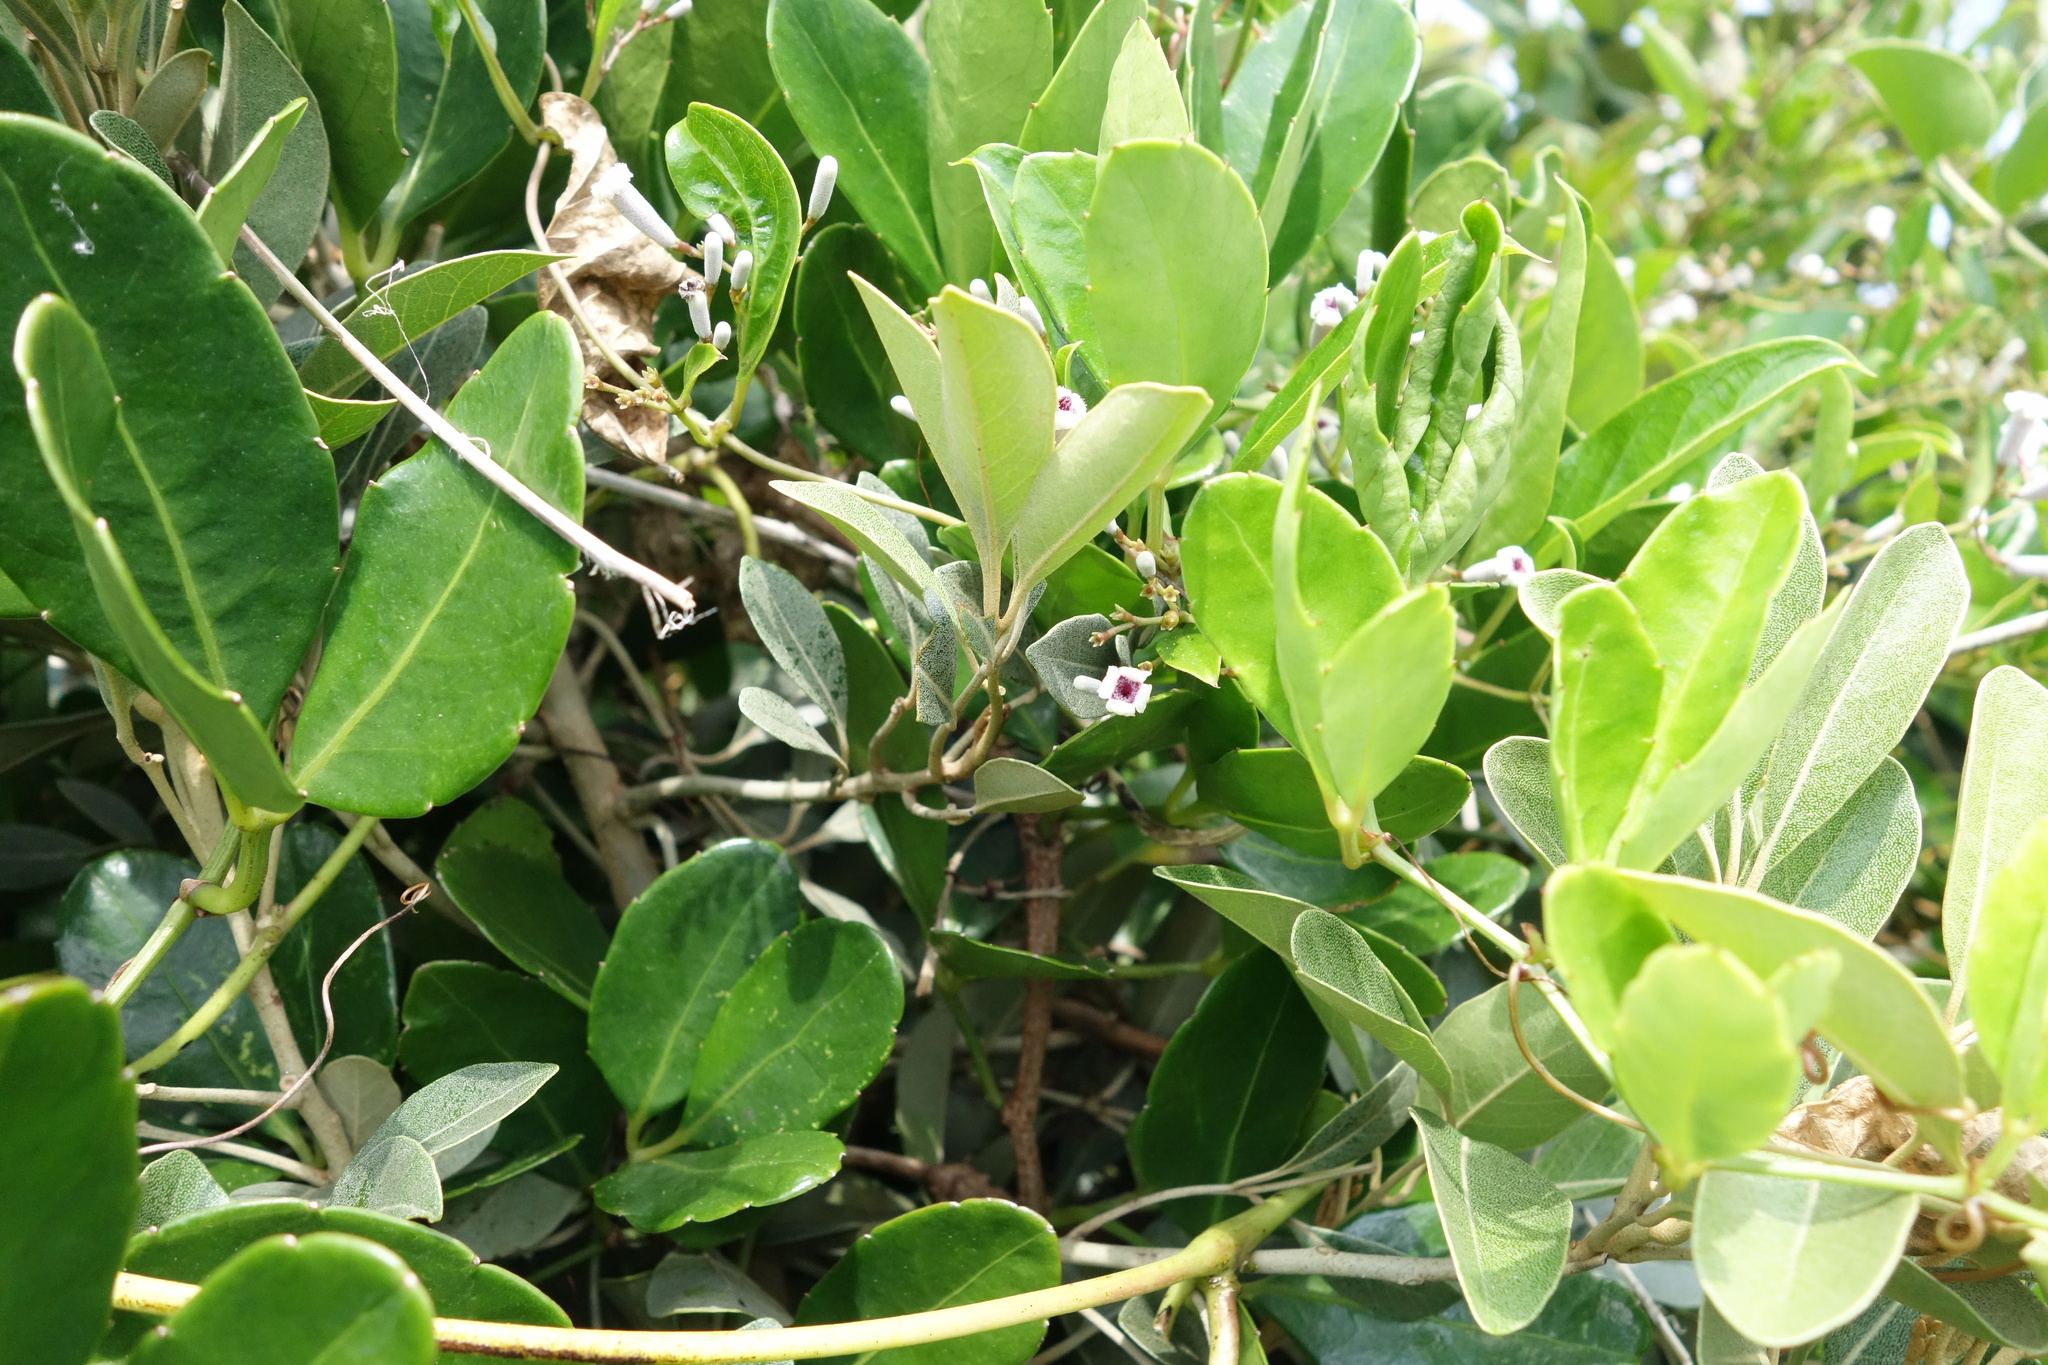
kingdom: Plantae
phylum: Tracheophyta
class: Magnoliopsida
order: Rosales
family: Moraceae
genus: Ficus
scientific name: Ficus tinctoria
